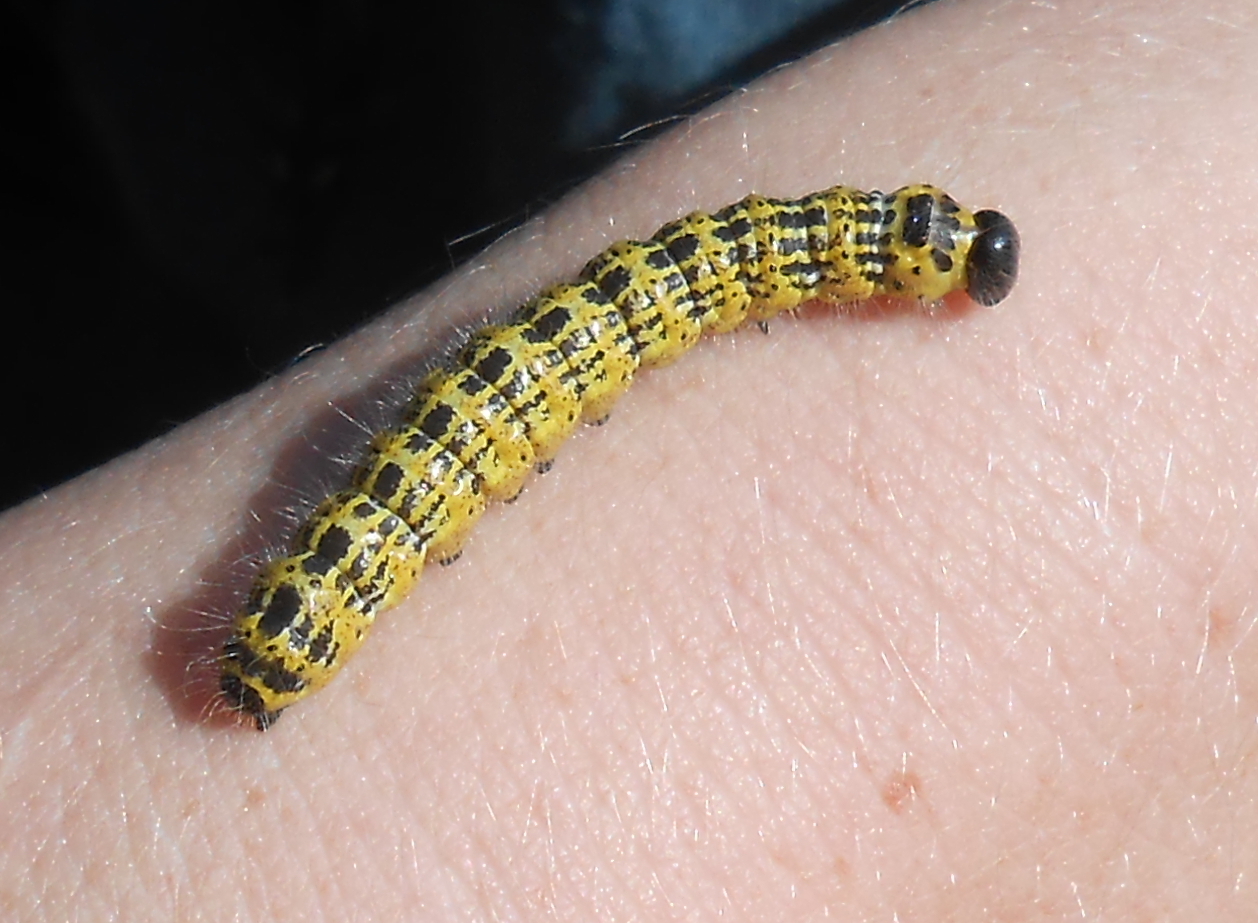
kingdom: Animalia
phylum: Arthropoda
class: Insecta
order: Lepidoptera
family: Notodontidae
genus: Phalera
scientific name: Phalera bucephala
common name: Buff-tip
